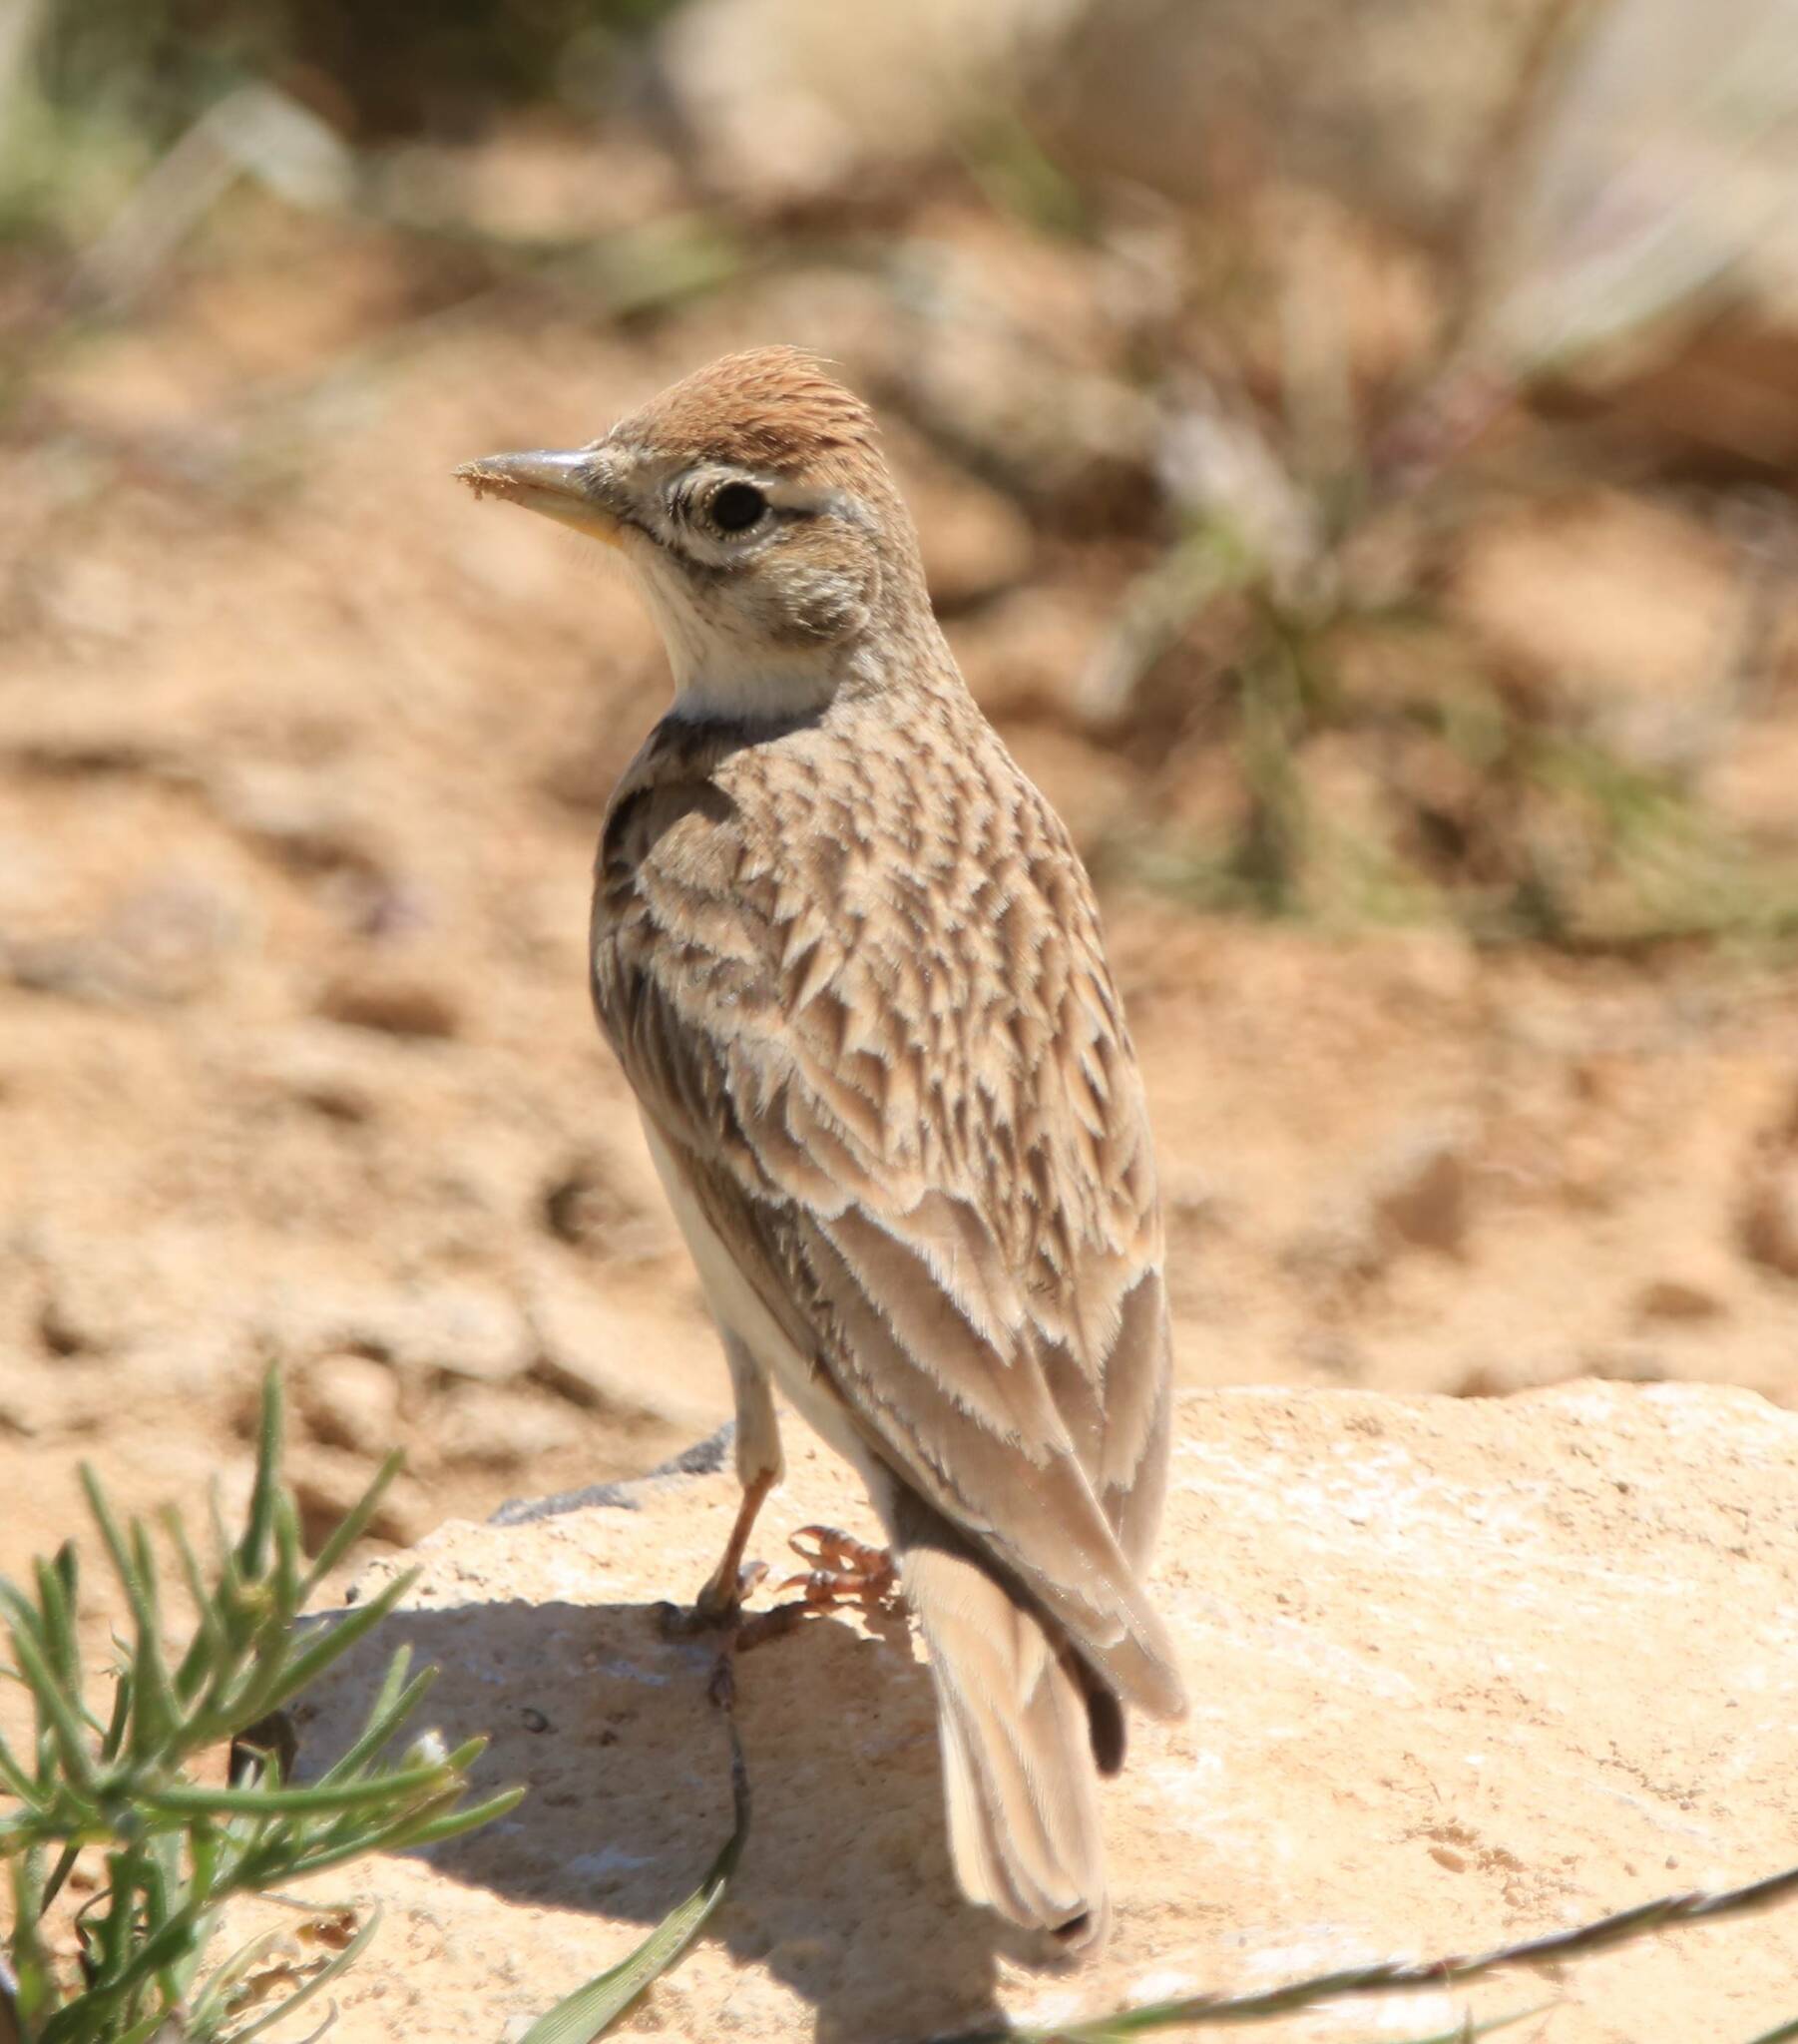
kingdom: Animalia
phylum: Chordata
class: Aves
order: Passeriformes
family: Alaudidae
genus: Calandrella
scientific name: Calandrella brachydactyla
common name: Greater short-toed lark
